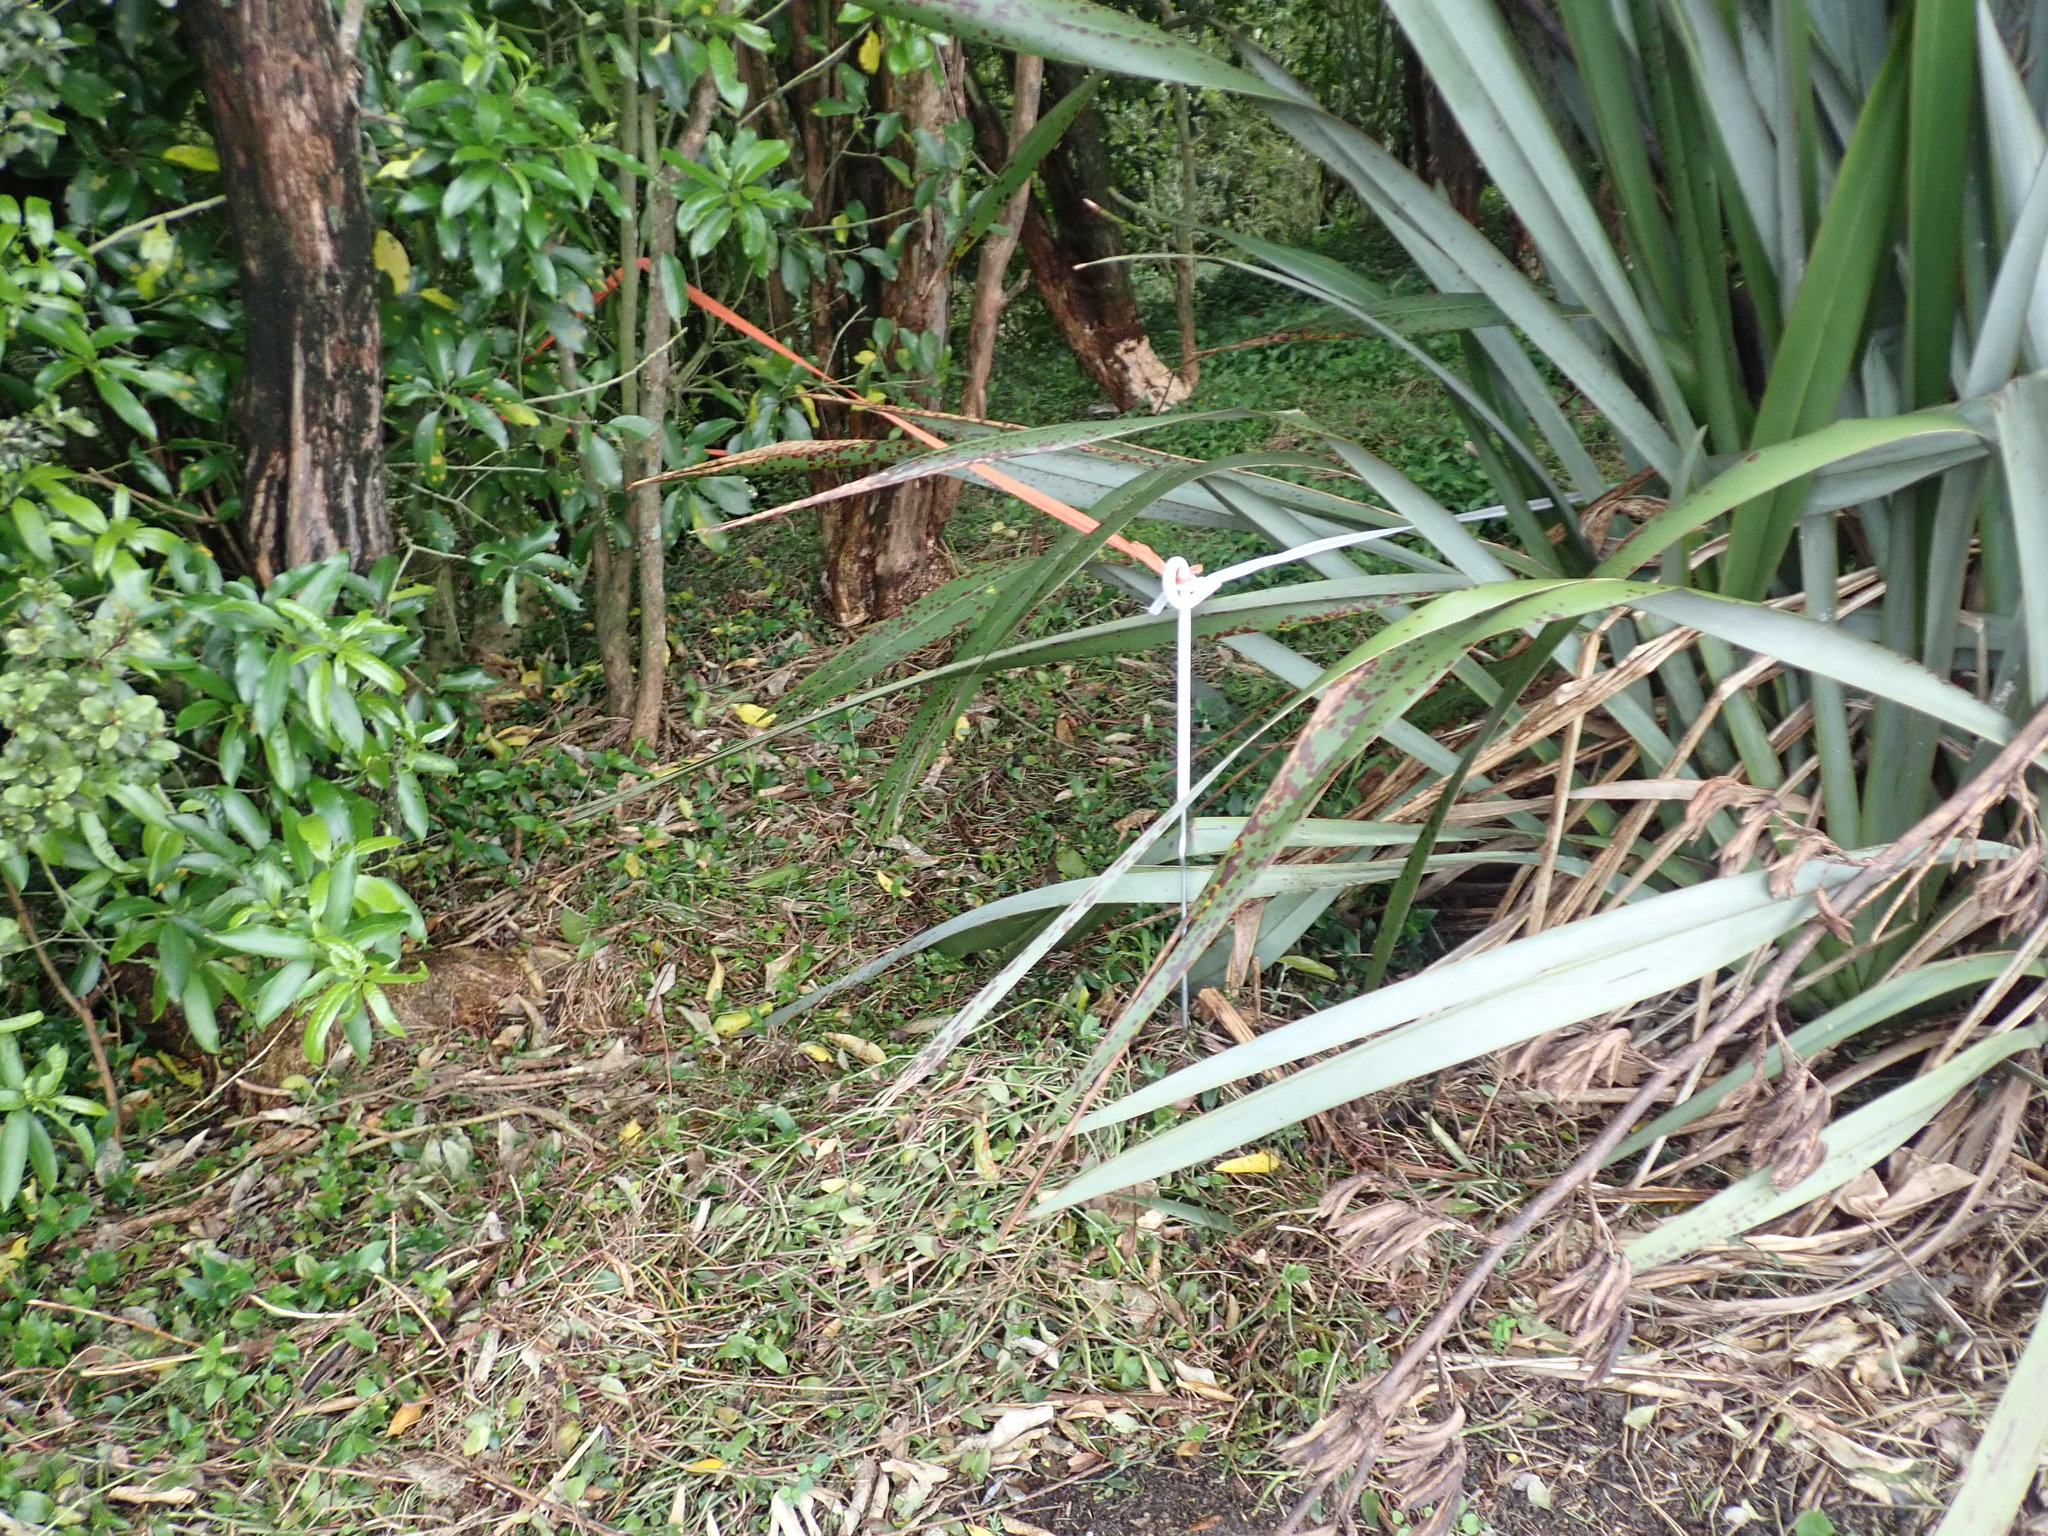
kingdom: Plantae
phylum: Tracheophyta
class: Magnoliopsida
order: Malpighiales
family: Violaceae
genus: Melicytus
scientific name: Melicytus ramiflorus
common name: Mahoe
